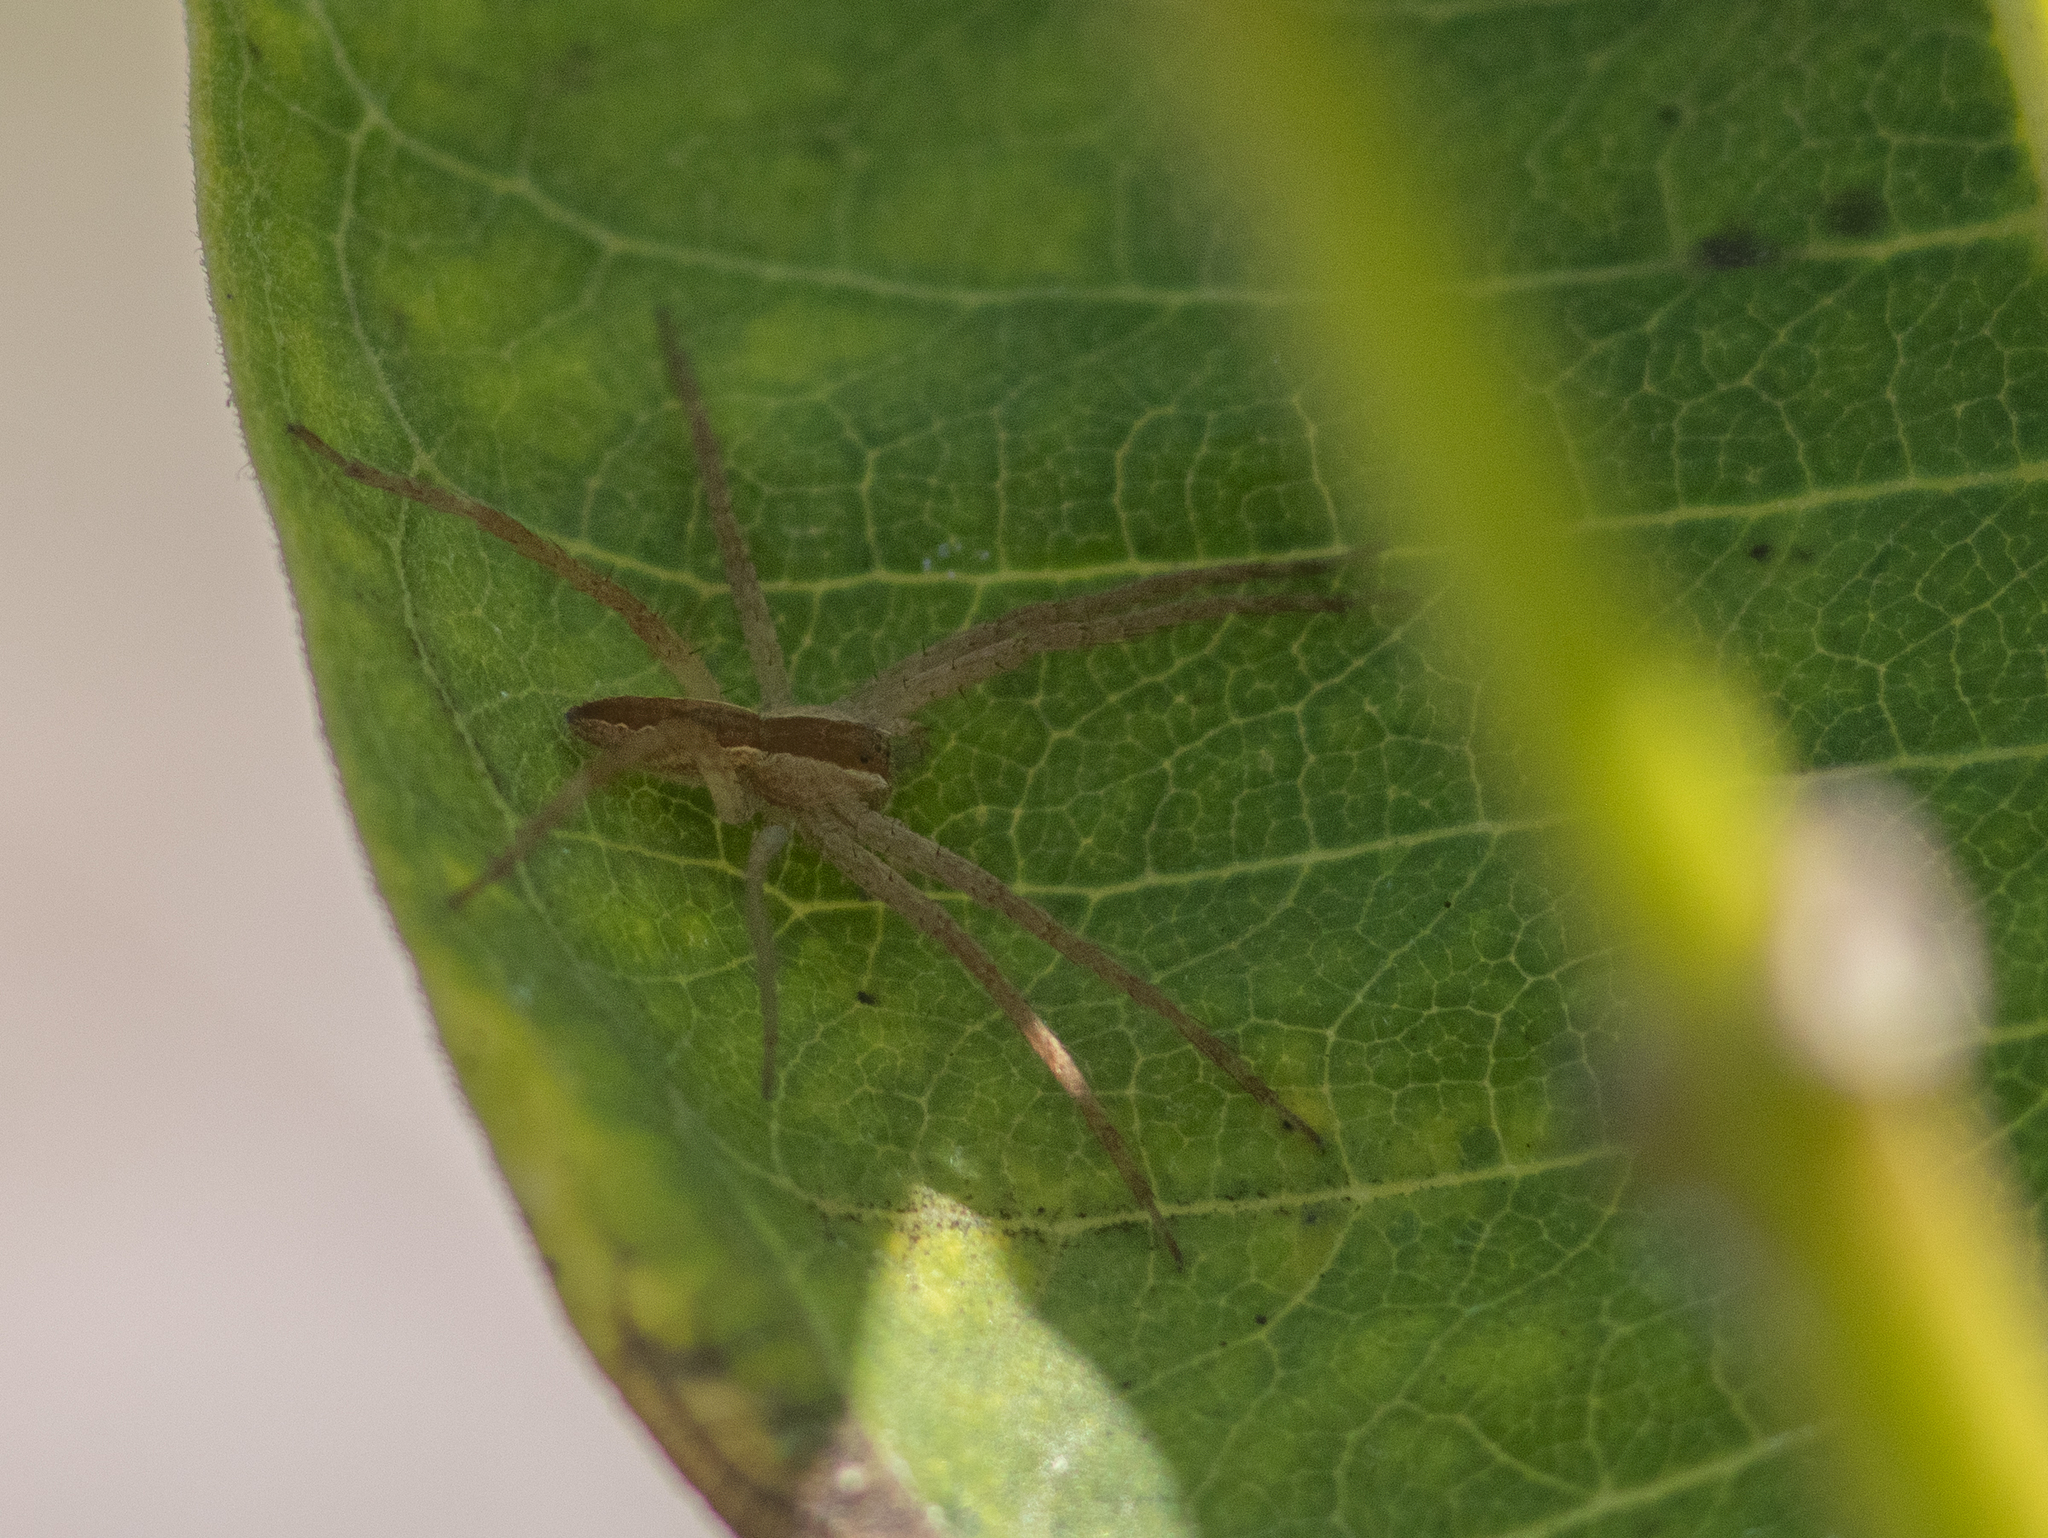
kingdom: Animalia
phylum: Arthropoda
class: Arachnida
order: Araneae
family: Pisauridae
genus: Pisaurina
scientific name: Pisaurina mira
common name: American nursery web spider
